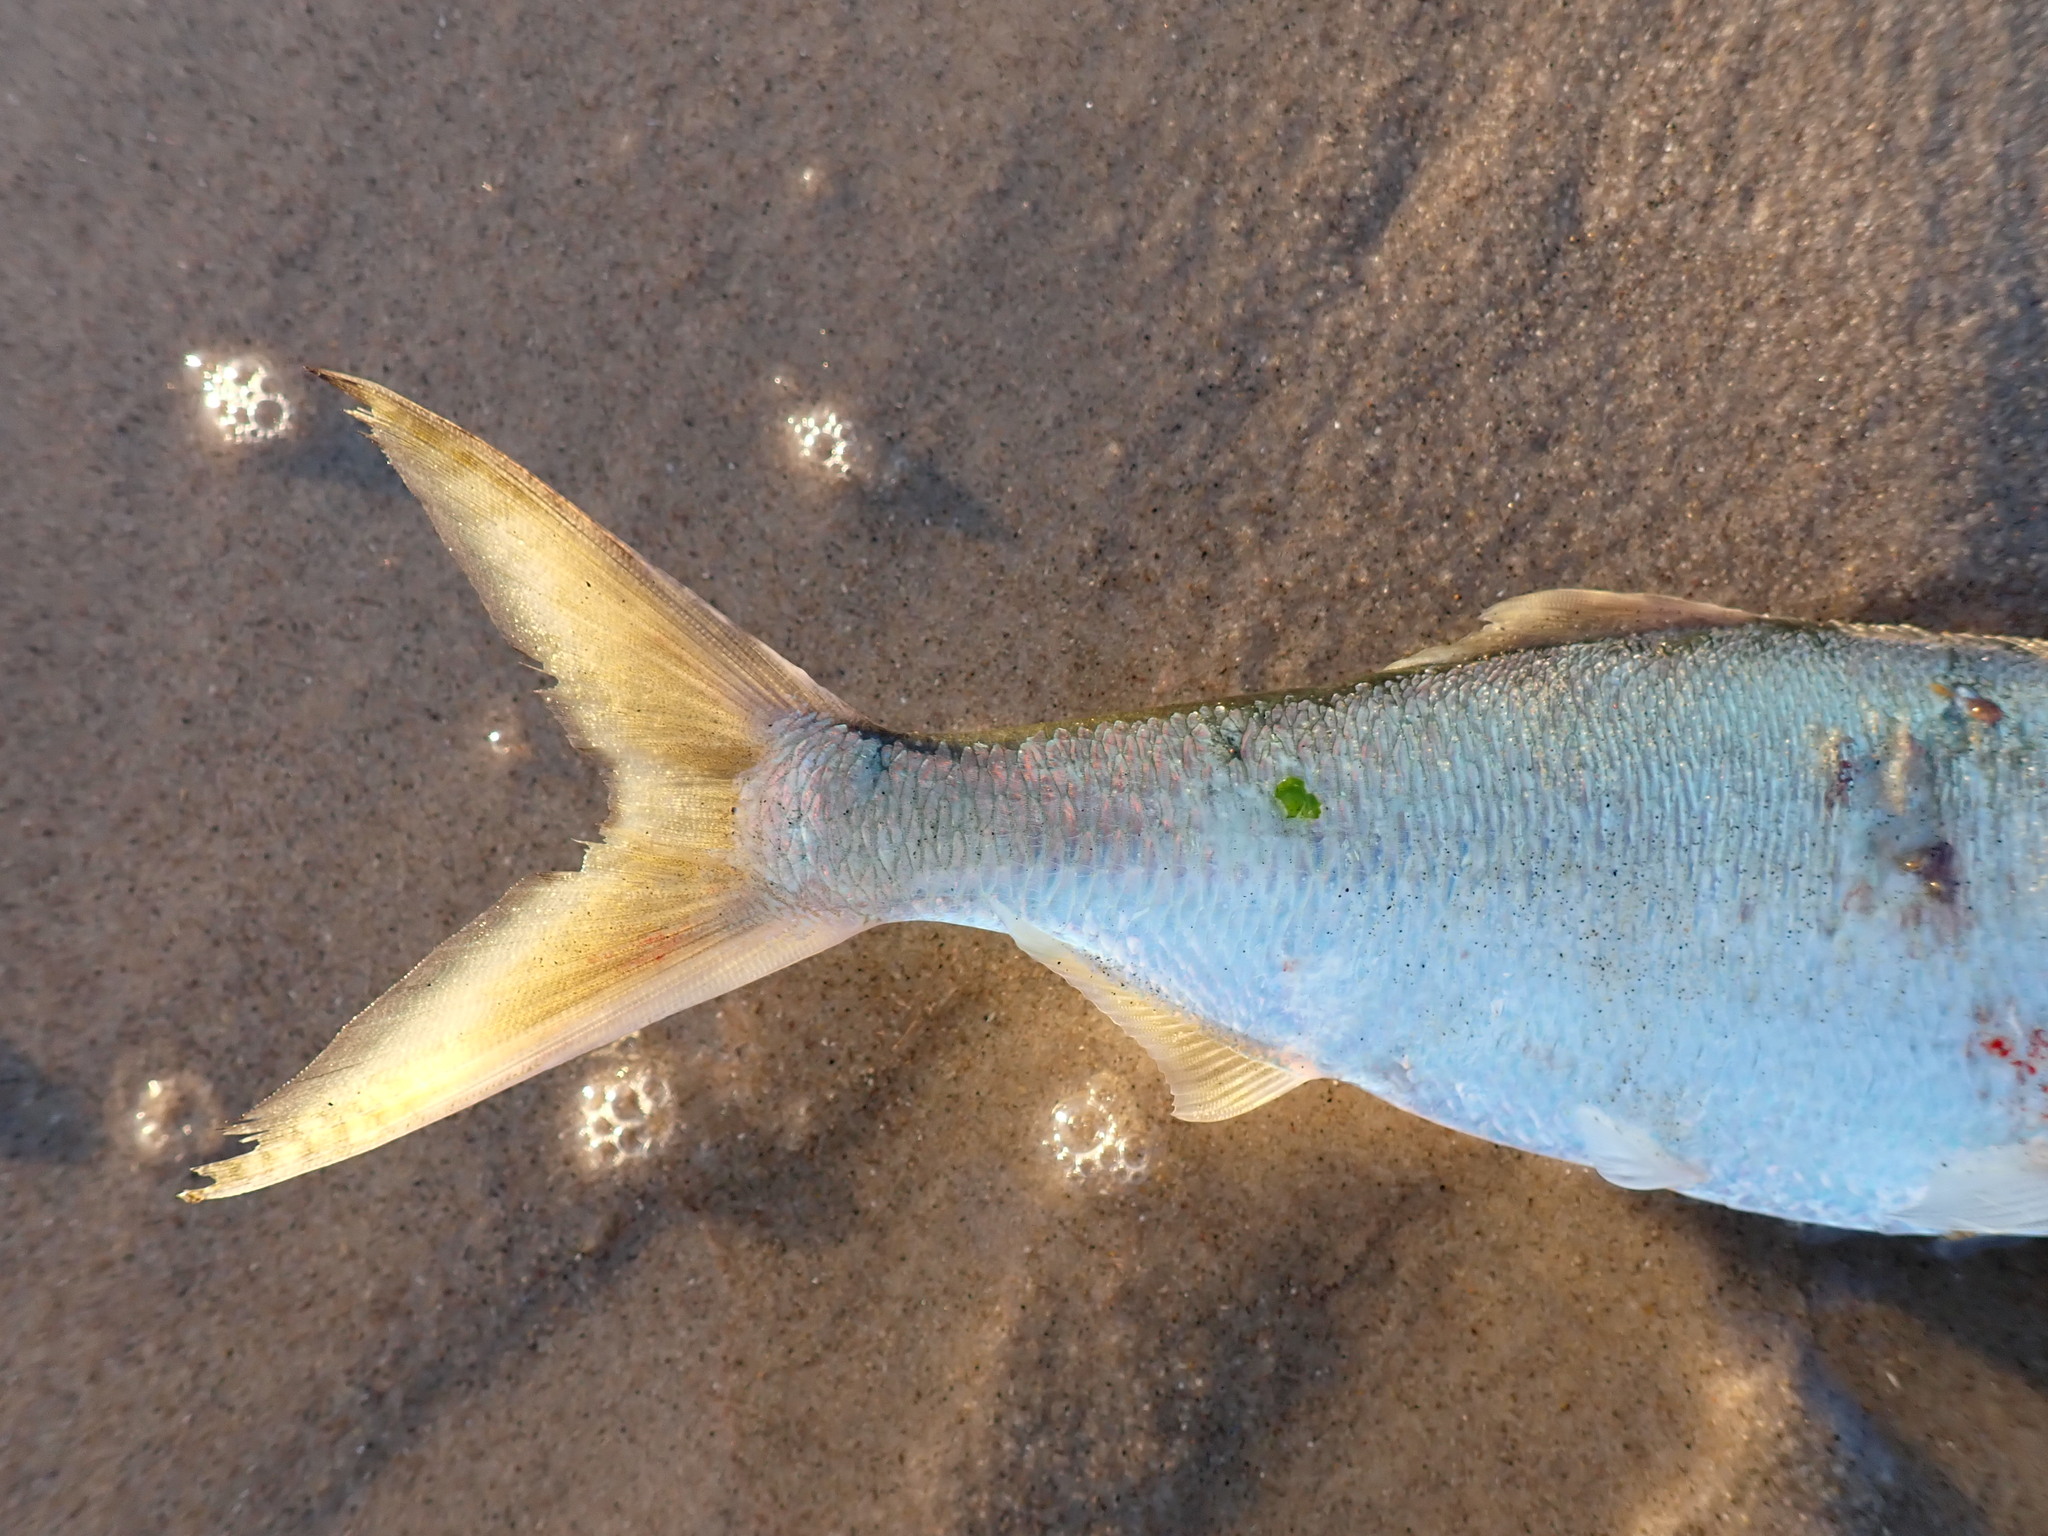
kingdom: Animalia
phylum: Chordata
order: Clupeiformes
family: Clupeidae
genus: Brevoortia
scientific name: Brevoortia tyrannus
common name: Atlantic menhaden
